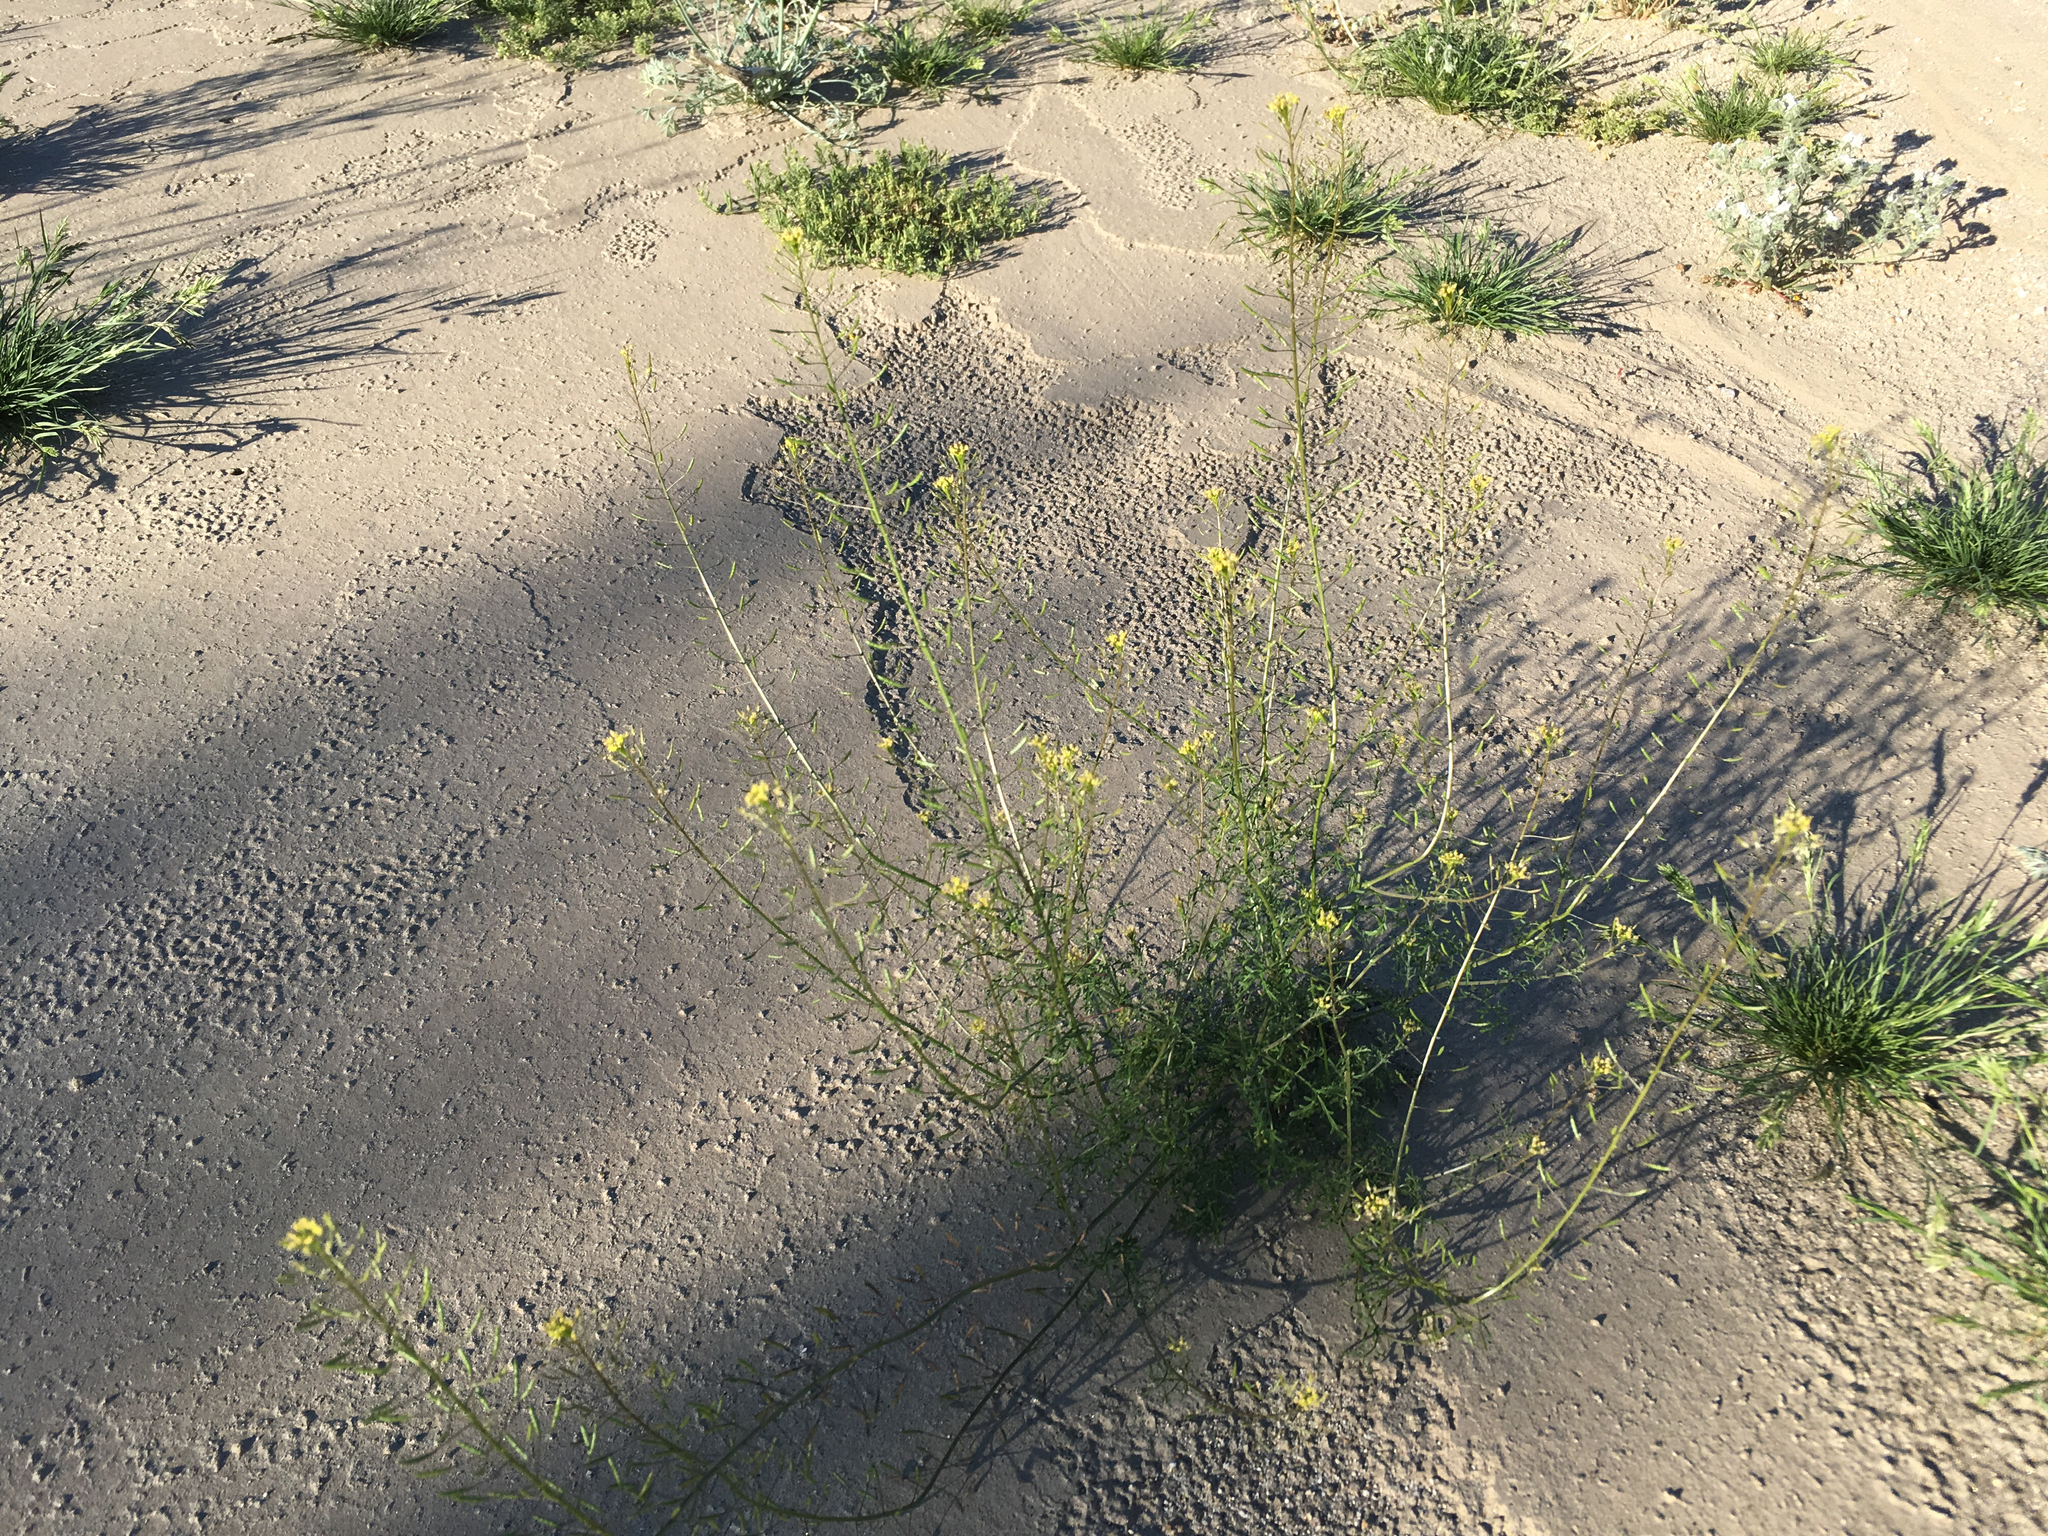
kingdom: Plantae
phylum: Tracheophyta
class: Magnoliopsida
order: Brassicales
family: Brassicaceae
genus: Descurainia
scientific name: Descurainia pinnata
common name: Western tansy mustard
